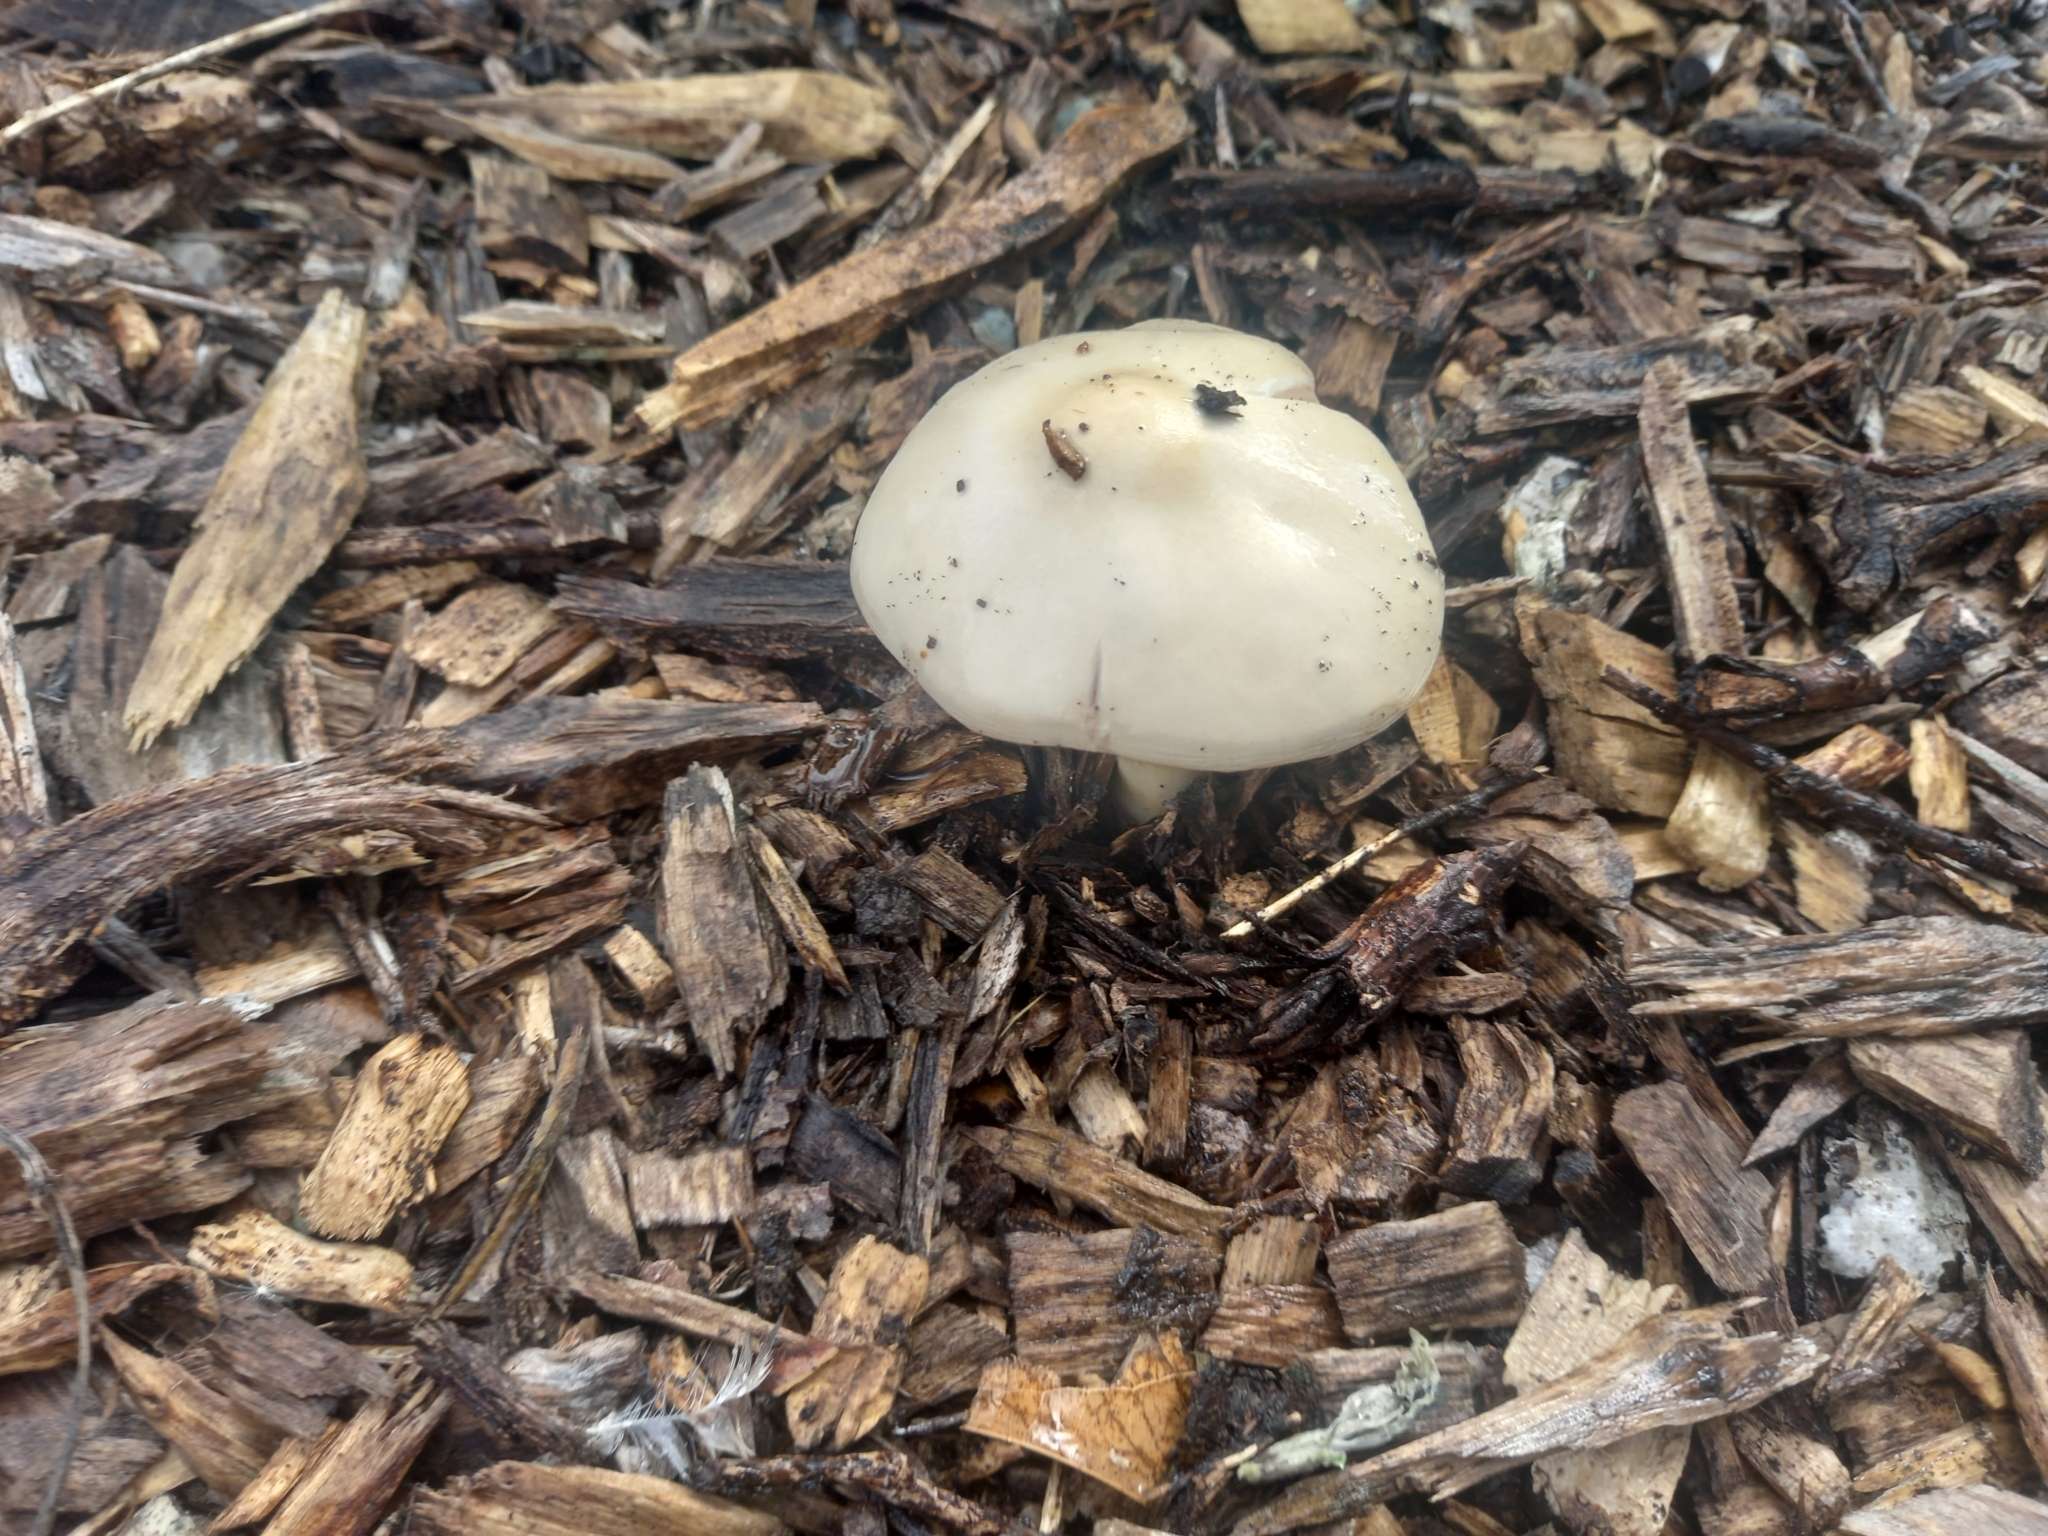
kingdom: Fungi
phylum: Basidiomycota
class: Agaricomycetes
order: Agaricales
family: Pluteaceae
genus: Volvopluteus
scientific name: Volvopluteus gloiocephalus
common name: Stubble rosegill
